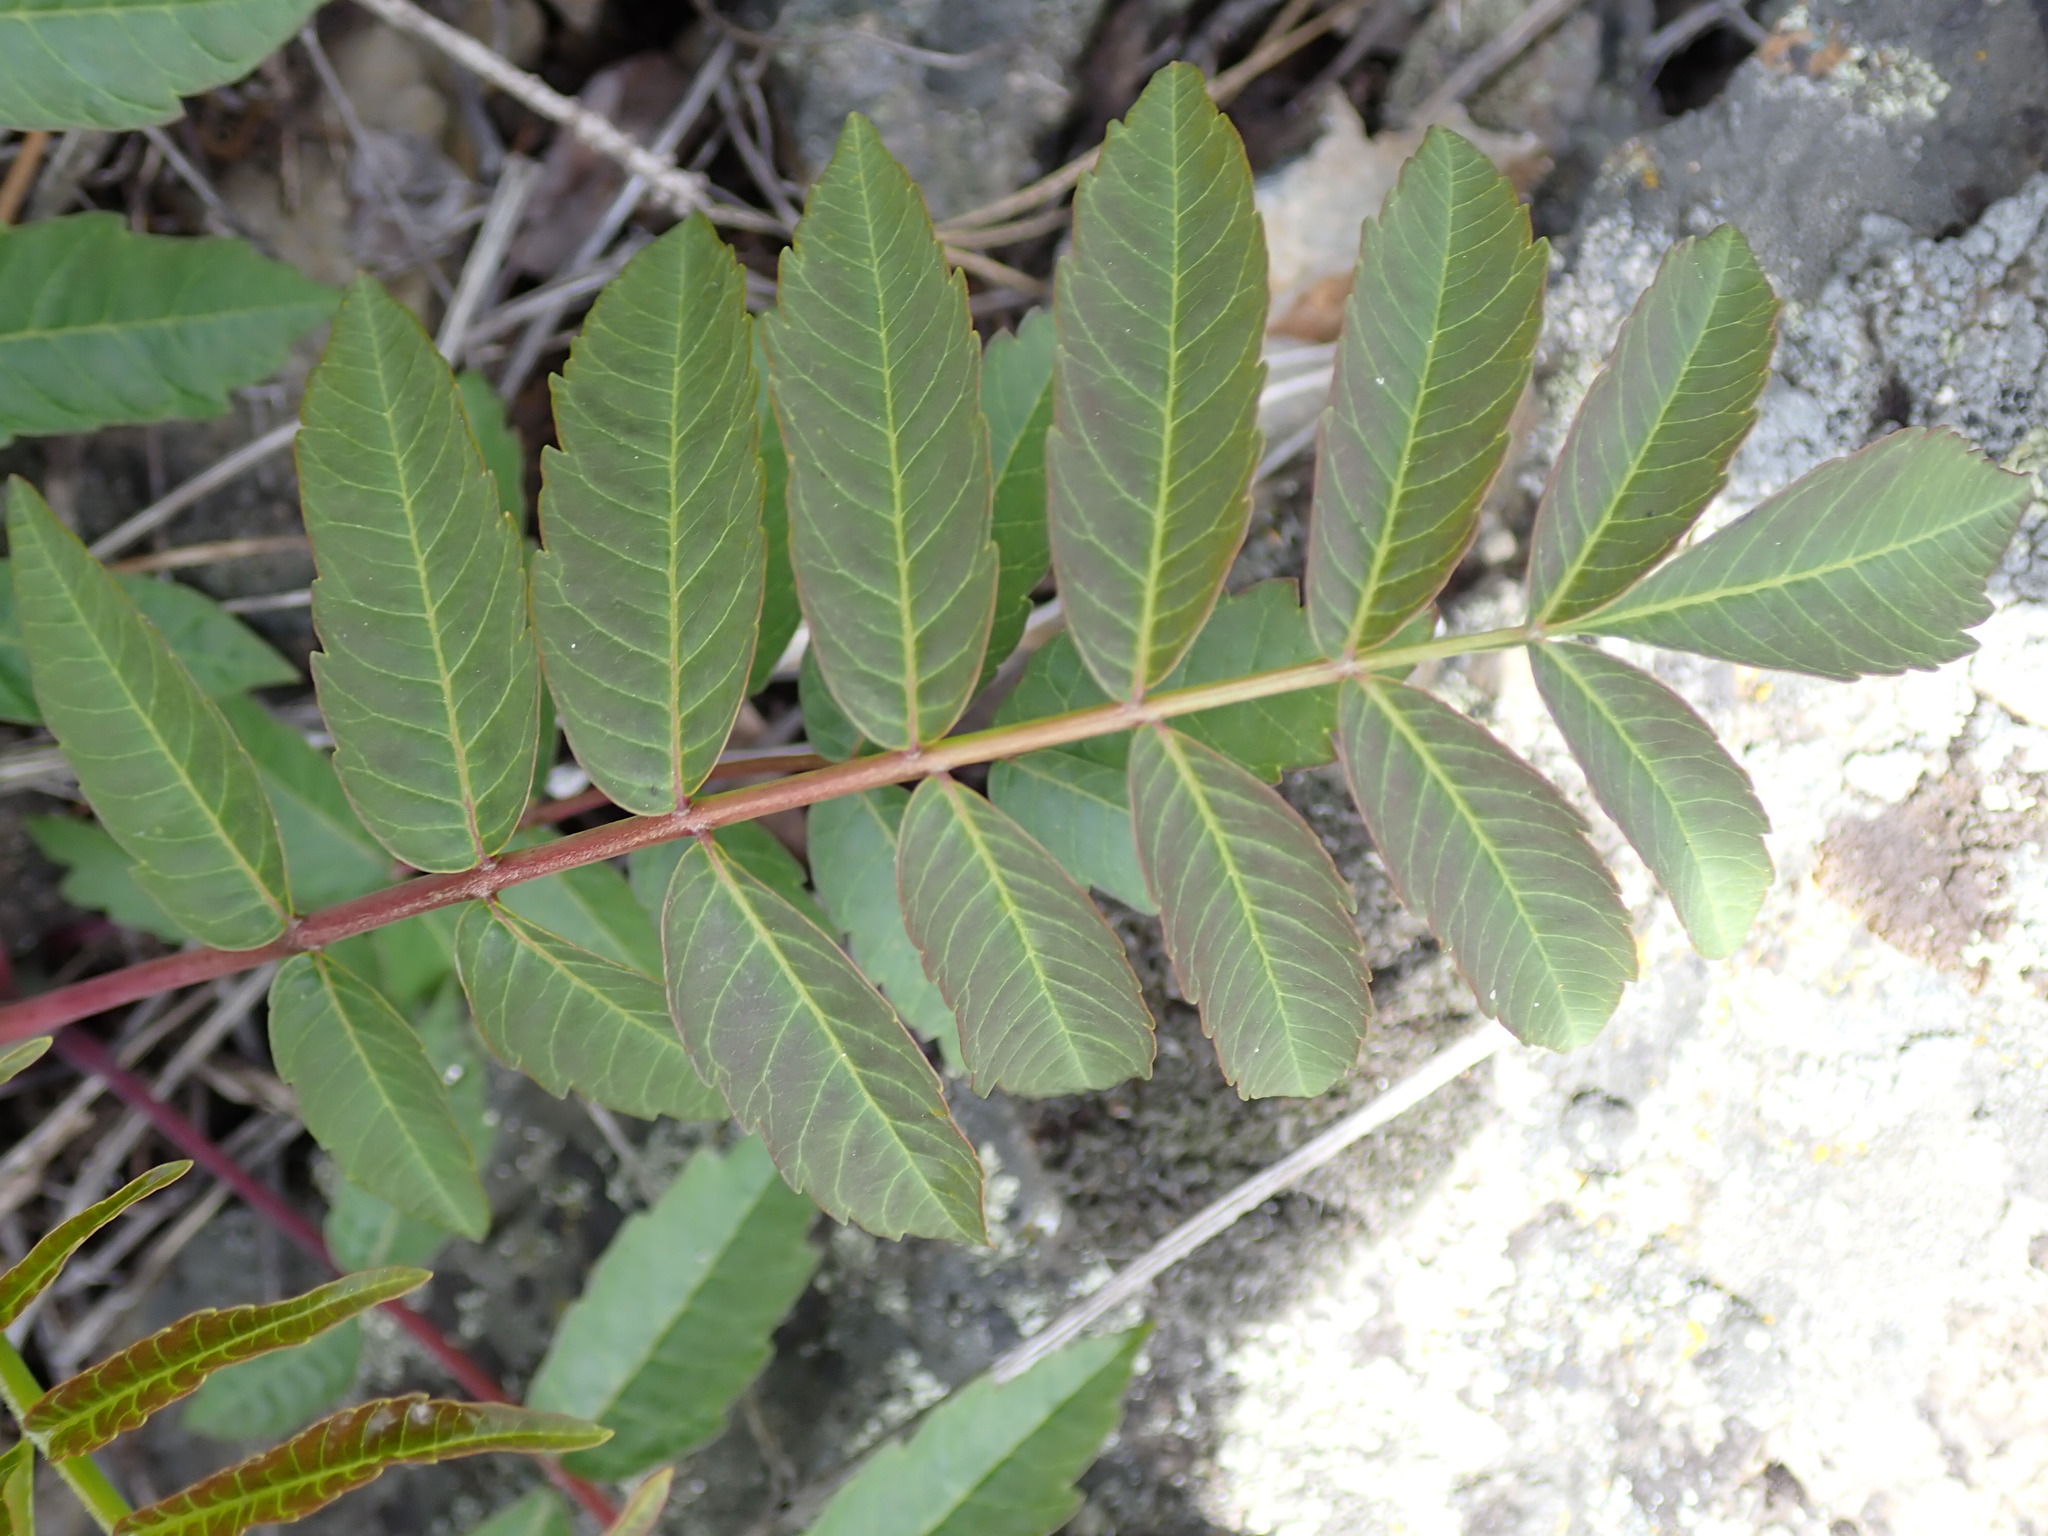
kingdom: Plantae
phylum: Tracheophyta
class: Magnoliopsida
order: Sapindales
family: Anacardiaceae
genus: Rhus
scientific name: Rhus glabra
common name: Scarlet sumac
